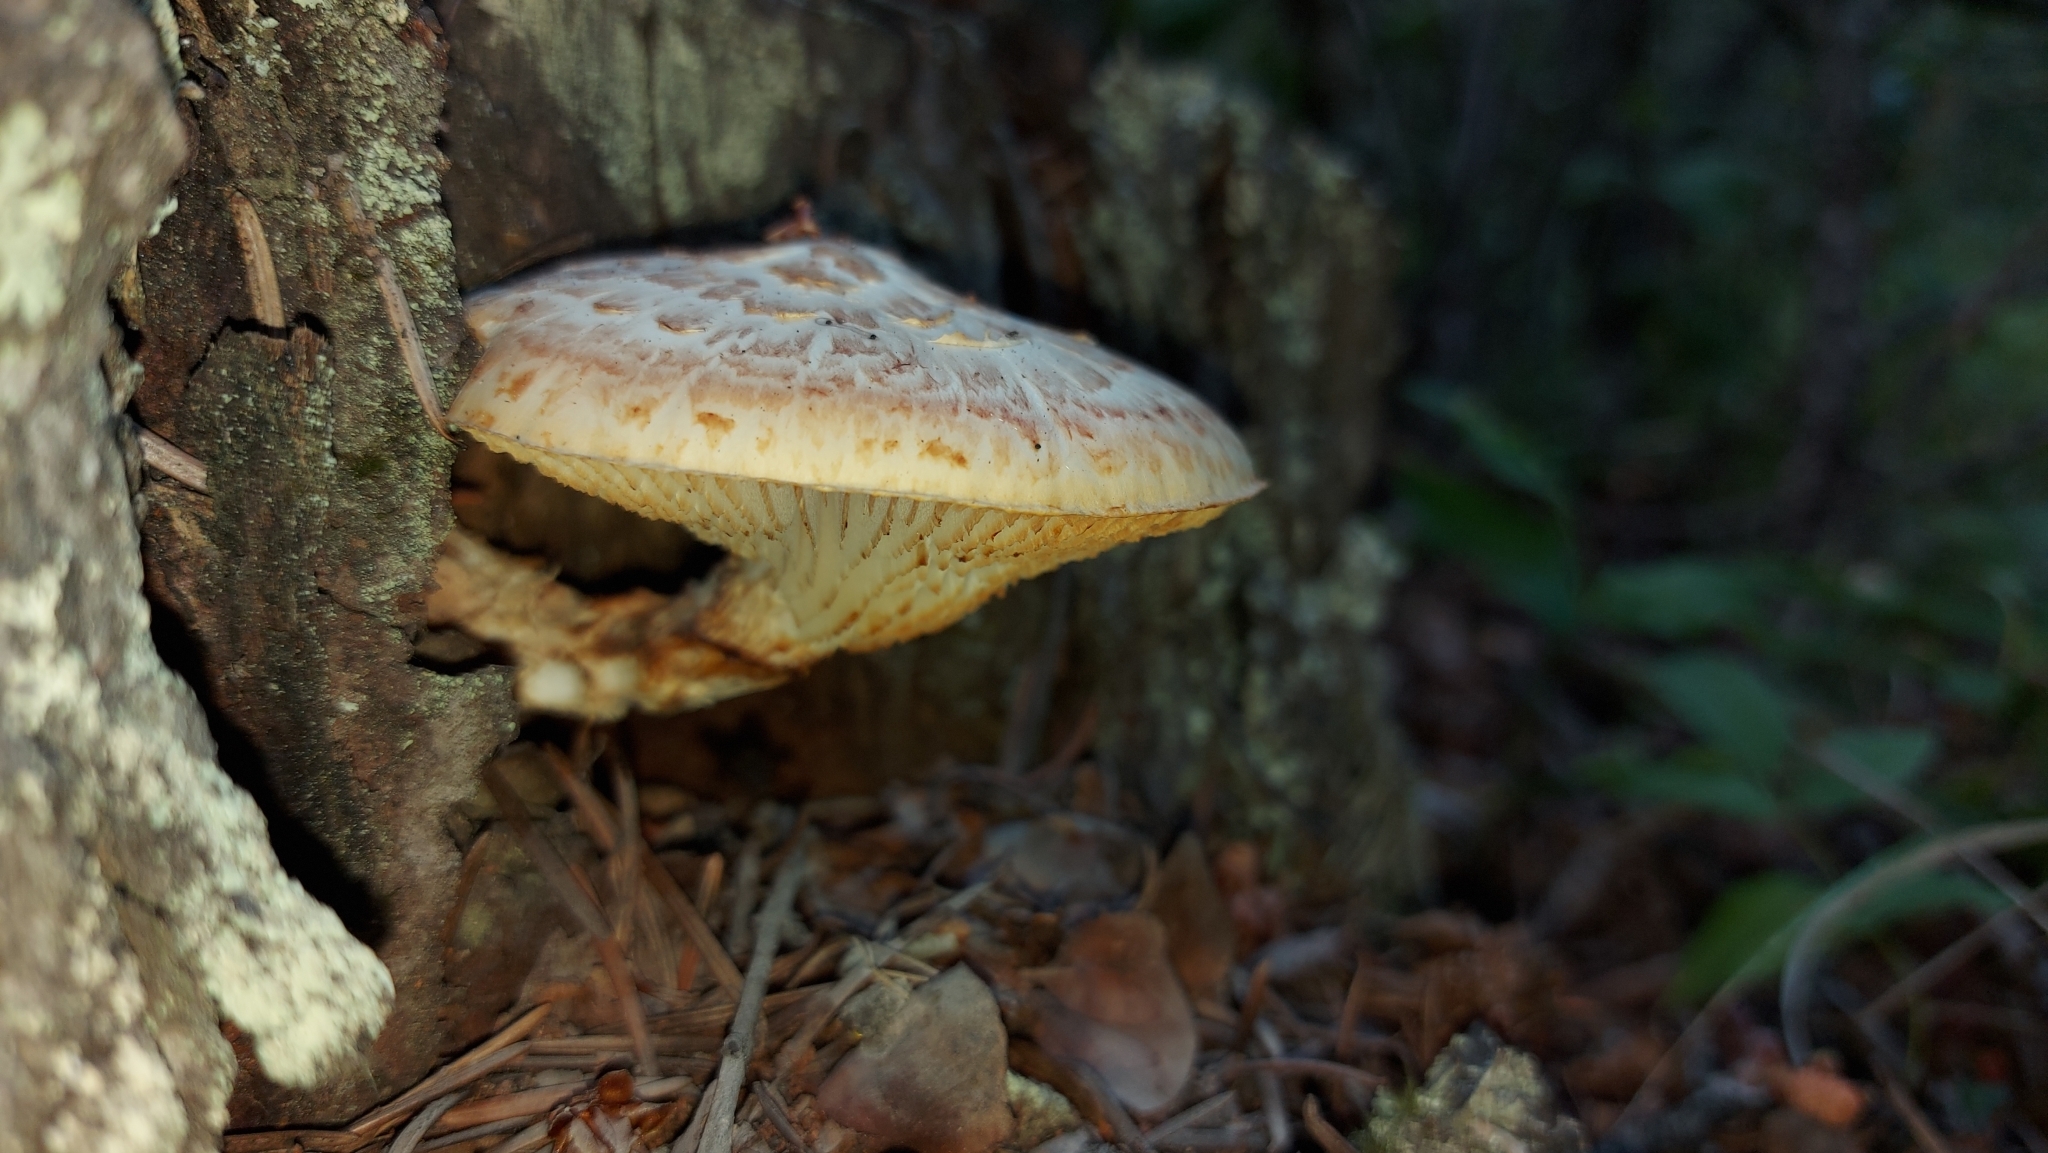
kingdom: Fungi
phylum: Basidiomycota
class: Agaricomycetes
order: Gloeophyllales
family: Gloeophyllaceae
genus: Neolentinus
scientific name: Neolentinus lepideus
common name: Scaly sawgill
